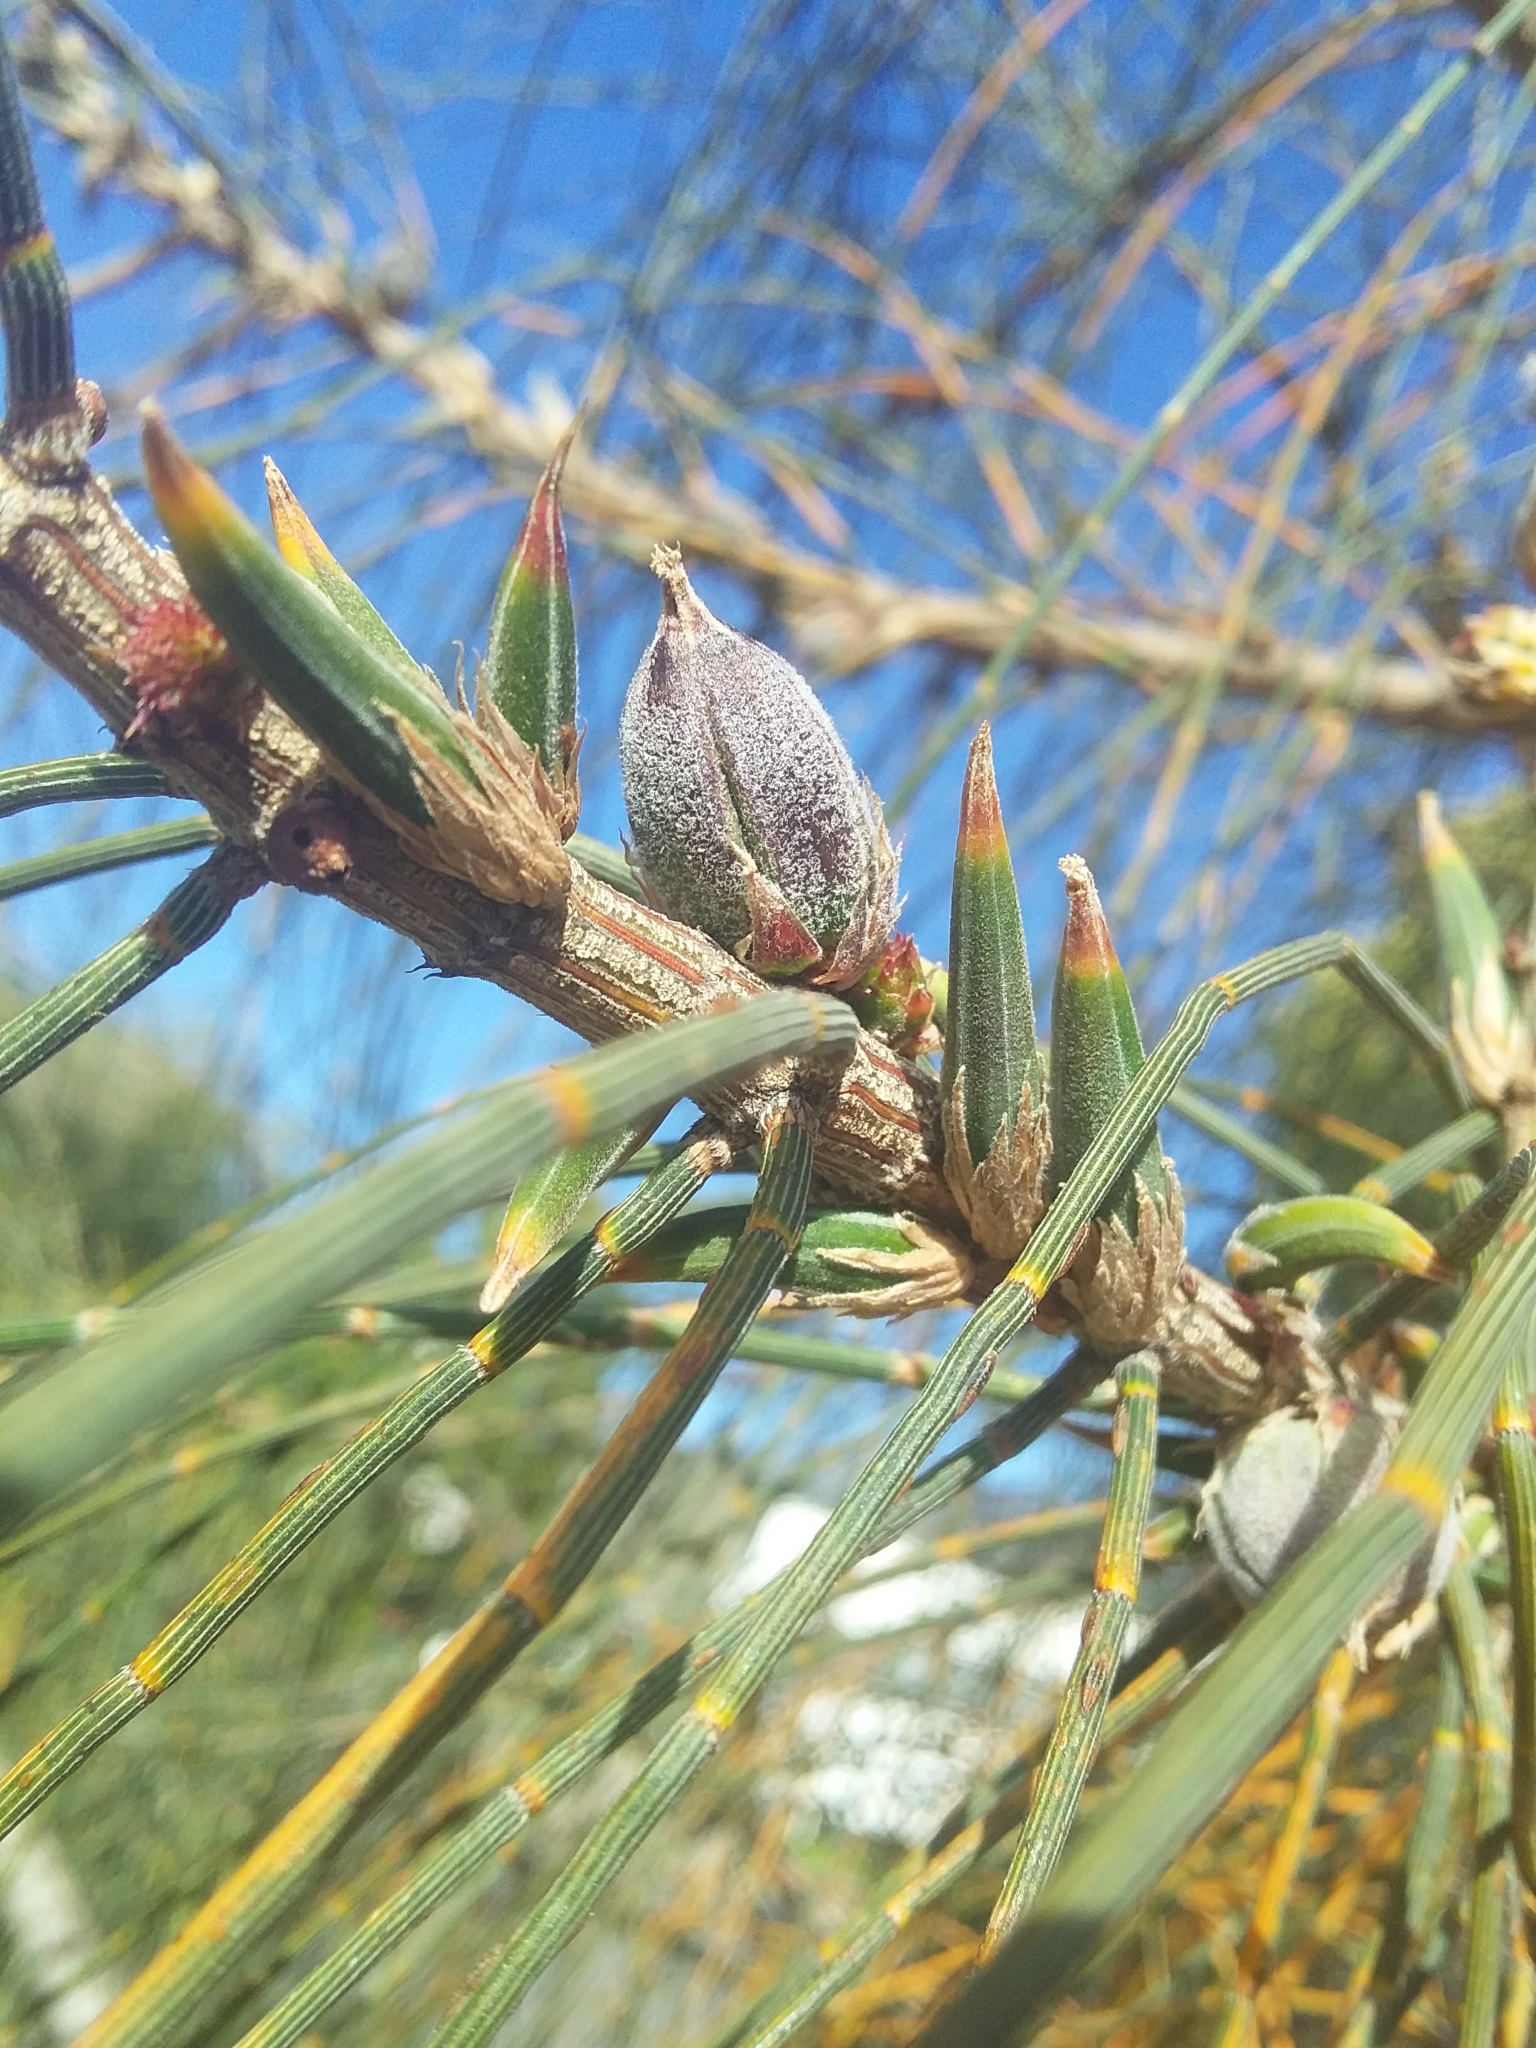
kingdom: Animalia
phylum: Arthropoda
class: Insecta
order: Hemiptera
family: Eriococcidae
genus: Cylindrococcus
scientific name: Cylindrococcus casuarinae
